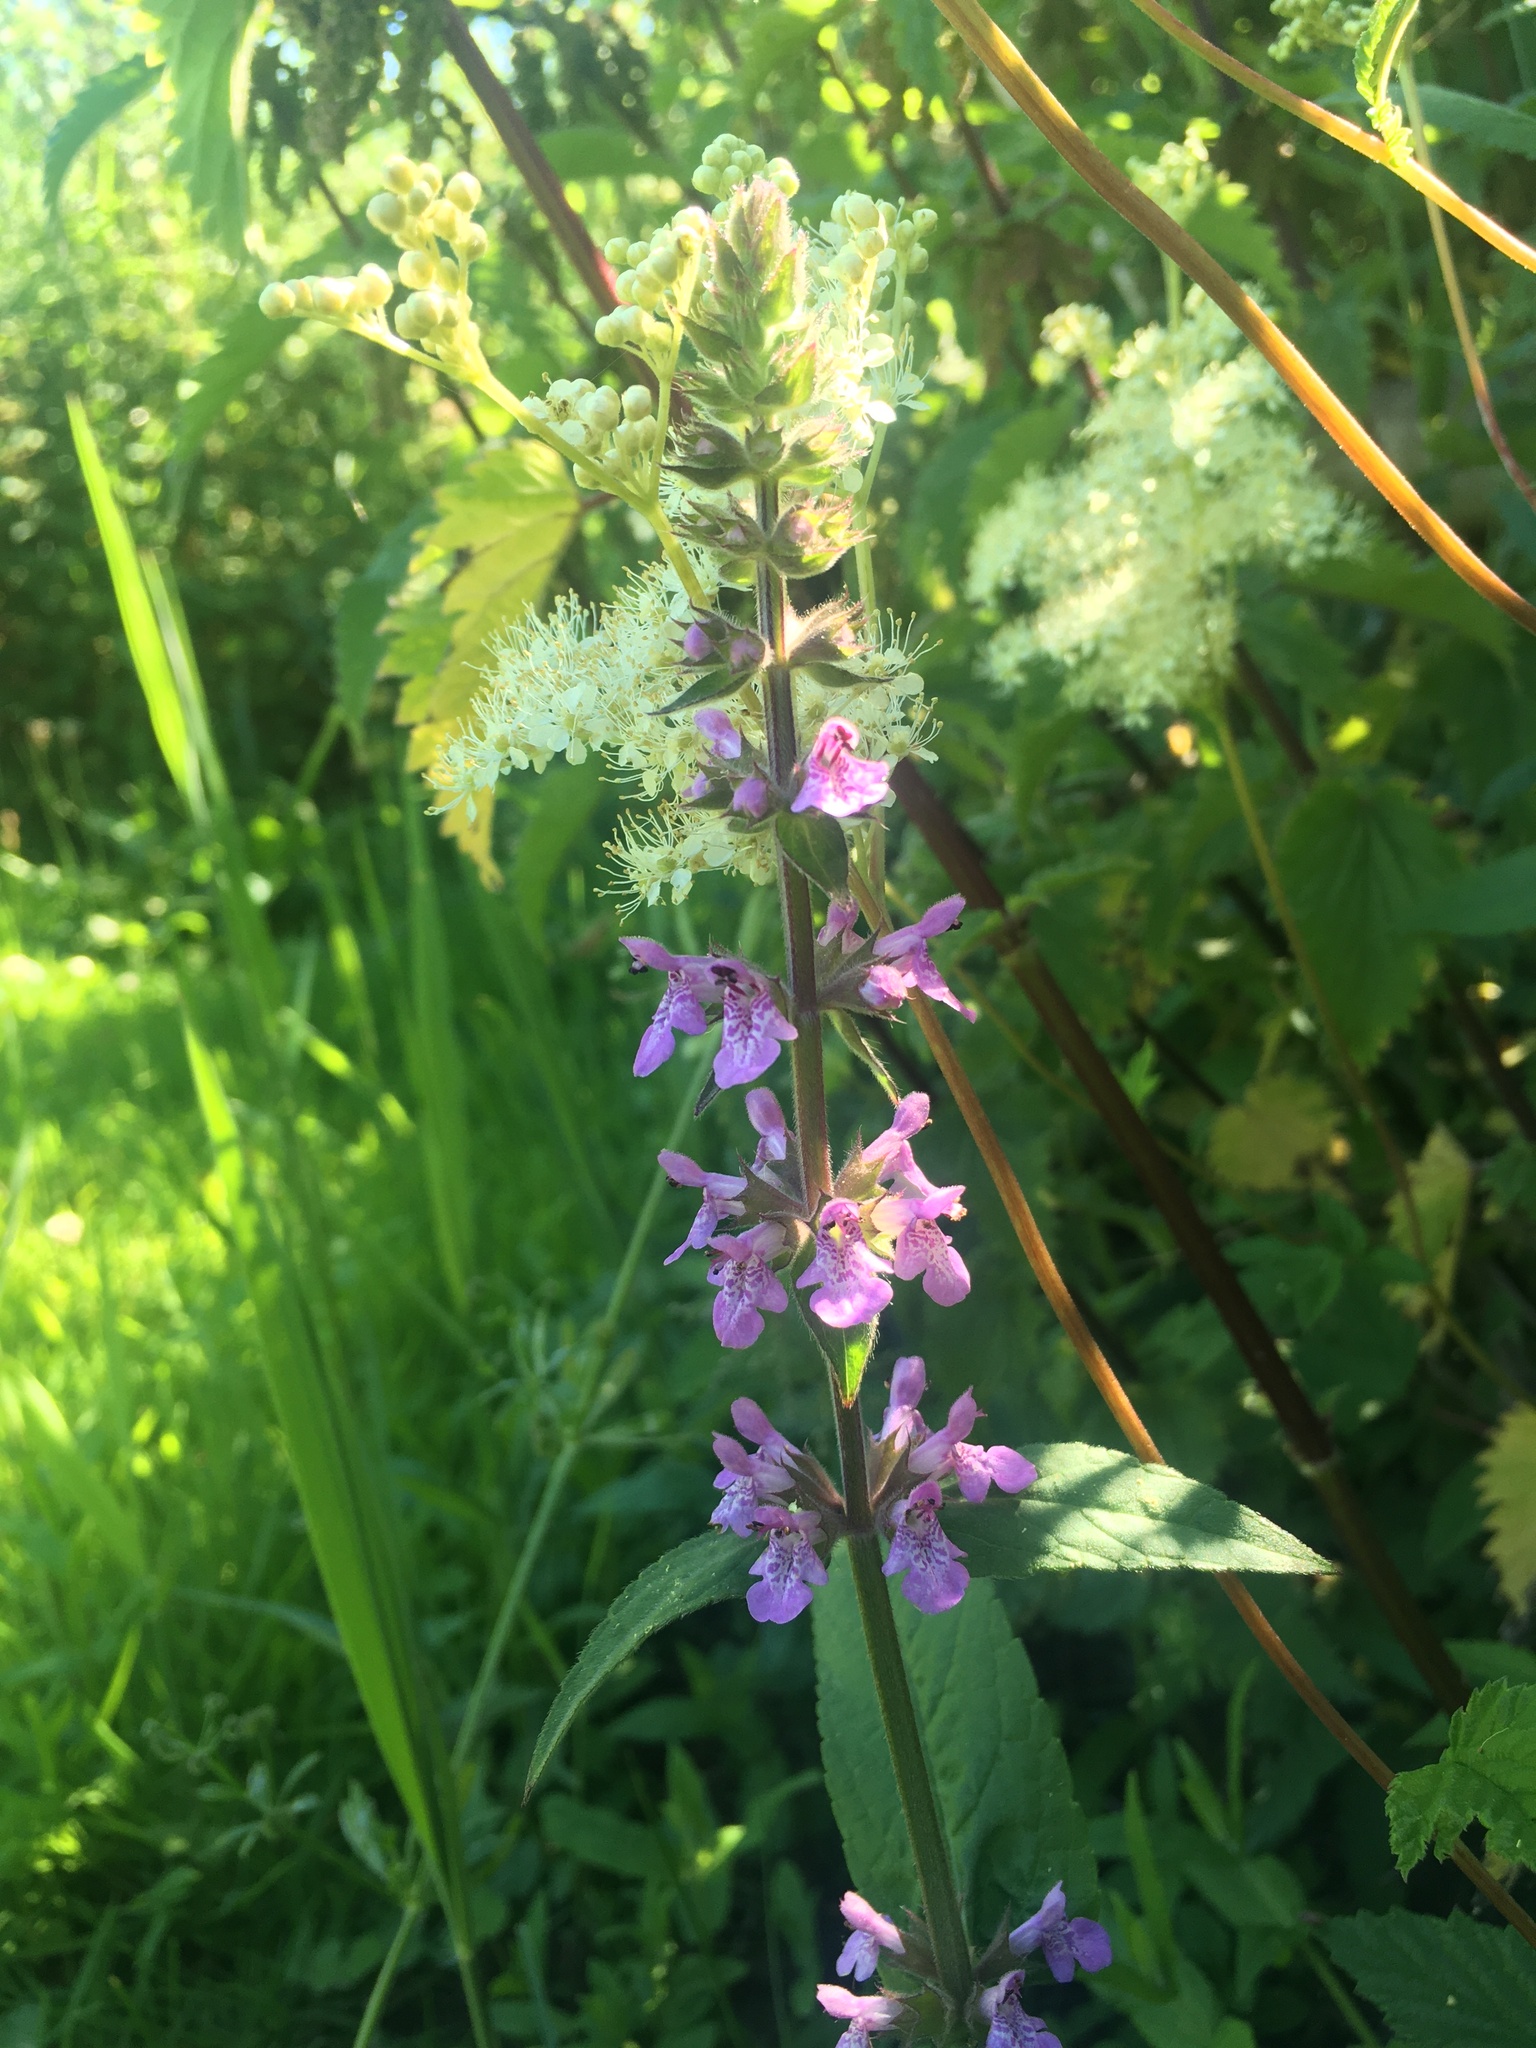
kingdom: Plantae
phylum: Tracheophyta
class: Magnoliopsida
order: Lamiales
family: Lamiaceae
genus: Stachys
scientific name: Stachys palustris
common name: Marsh woundwort
